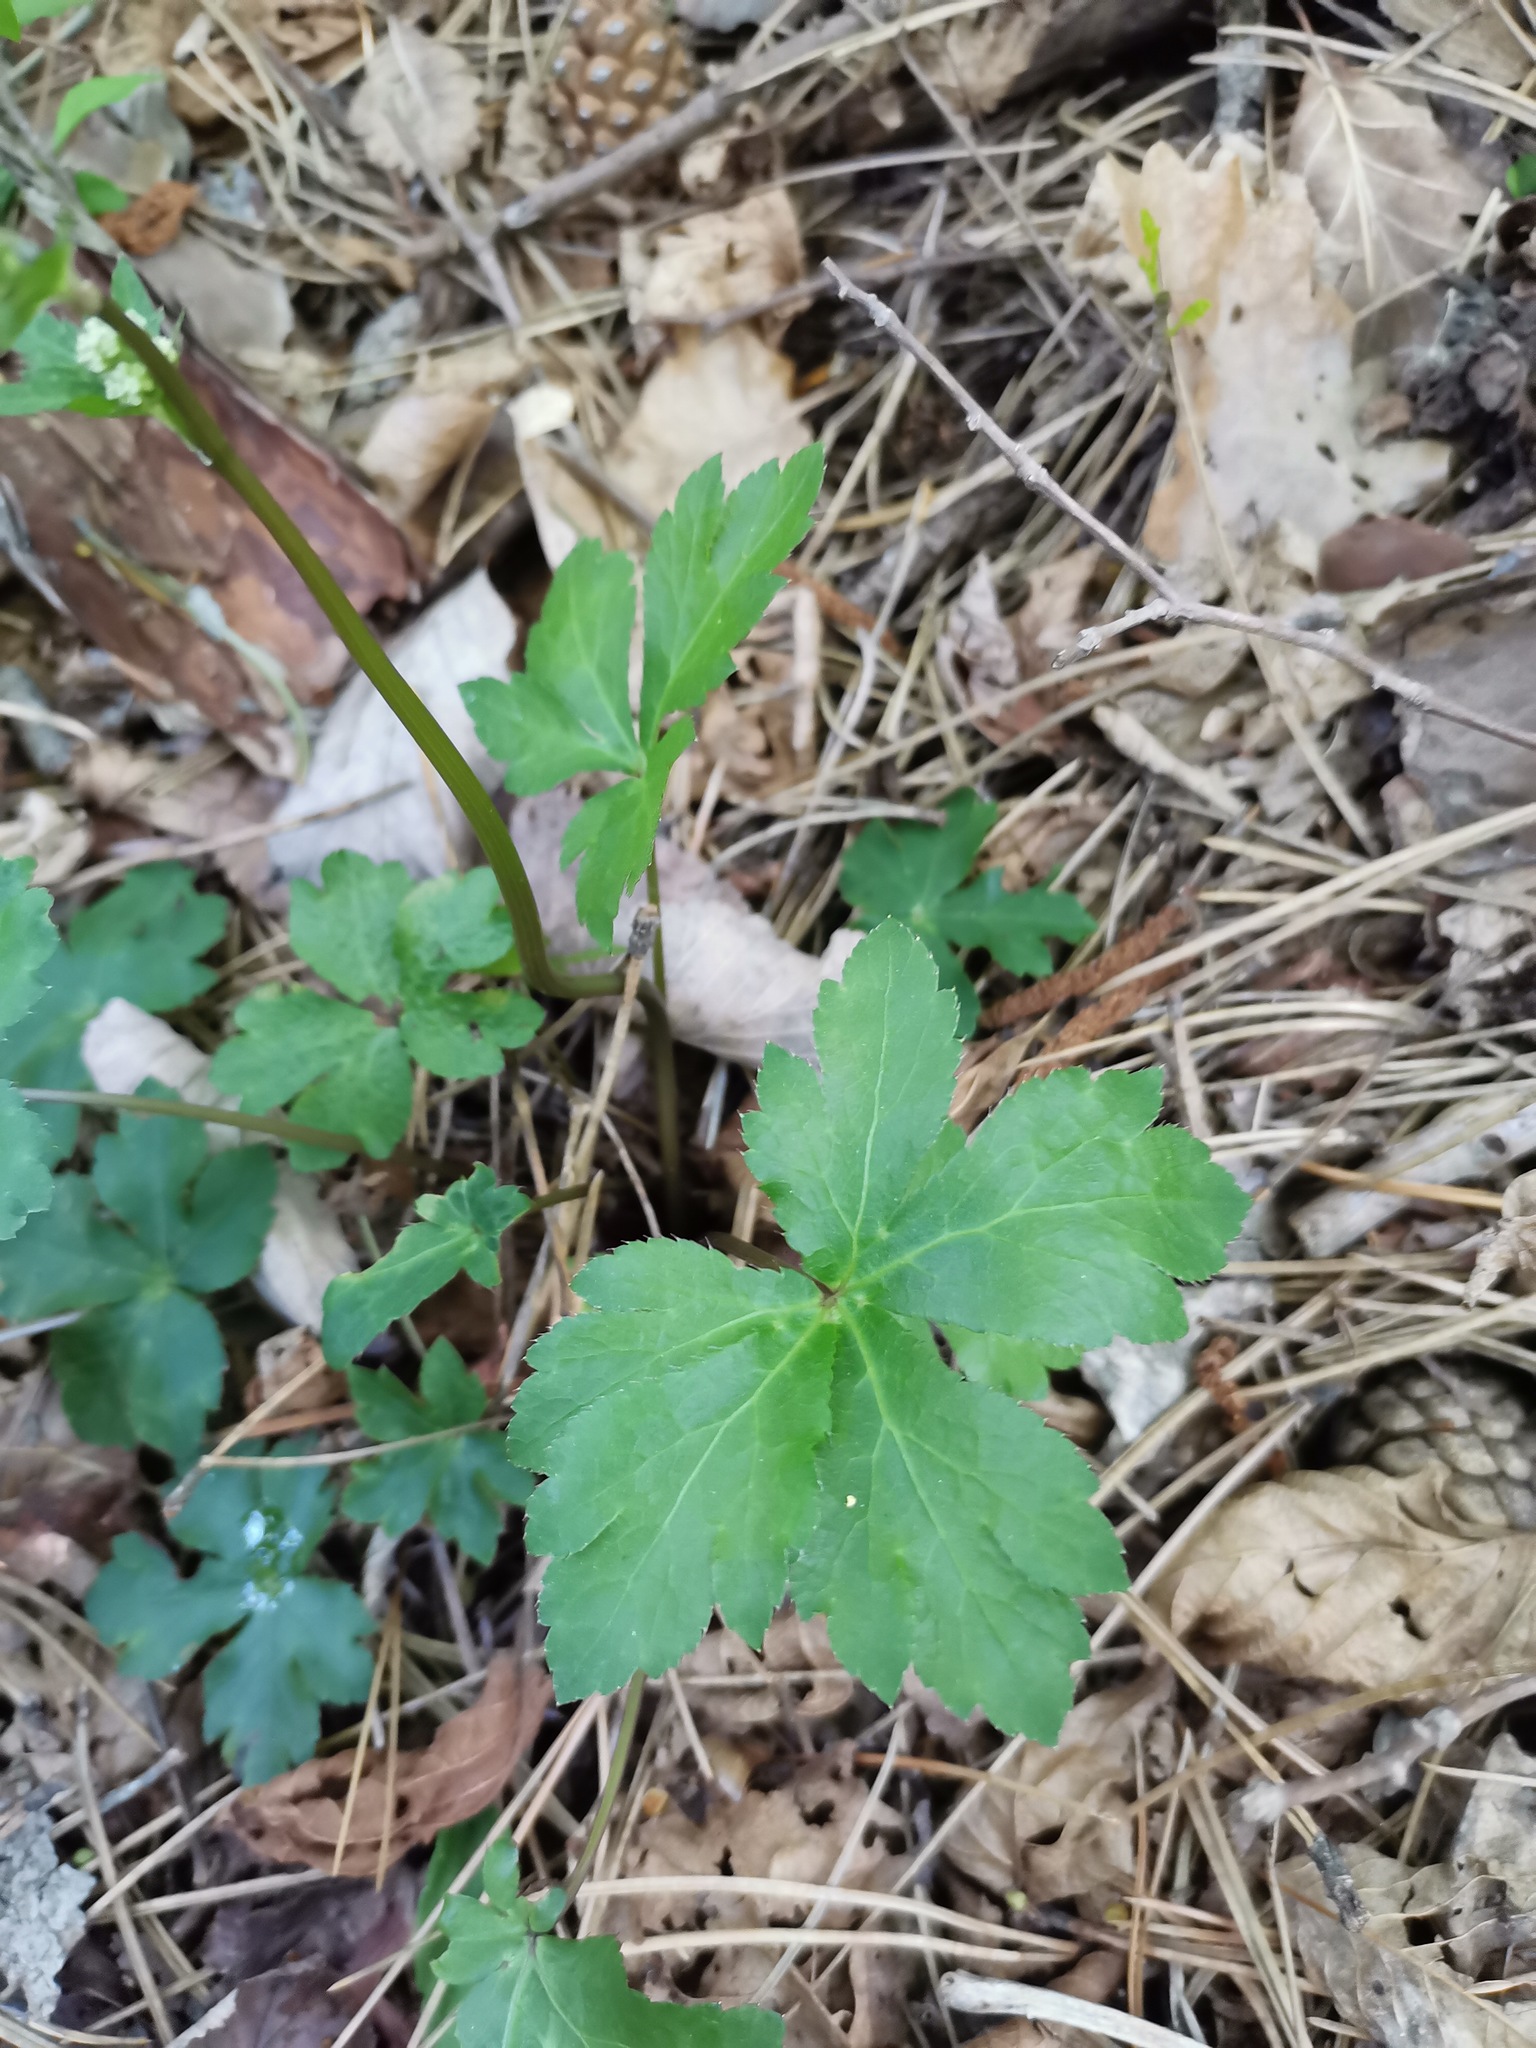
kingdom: Plantae
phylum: Tracheophyta
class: Magnoliopsida
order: Apiales
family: Apiaceae
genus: Sanicula
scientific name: Sanicula europaea
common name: Sanicle
